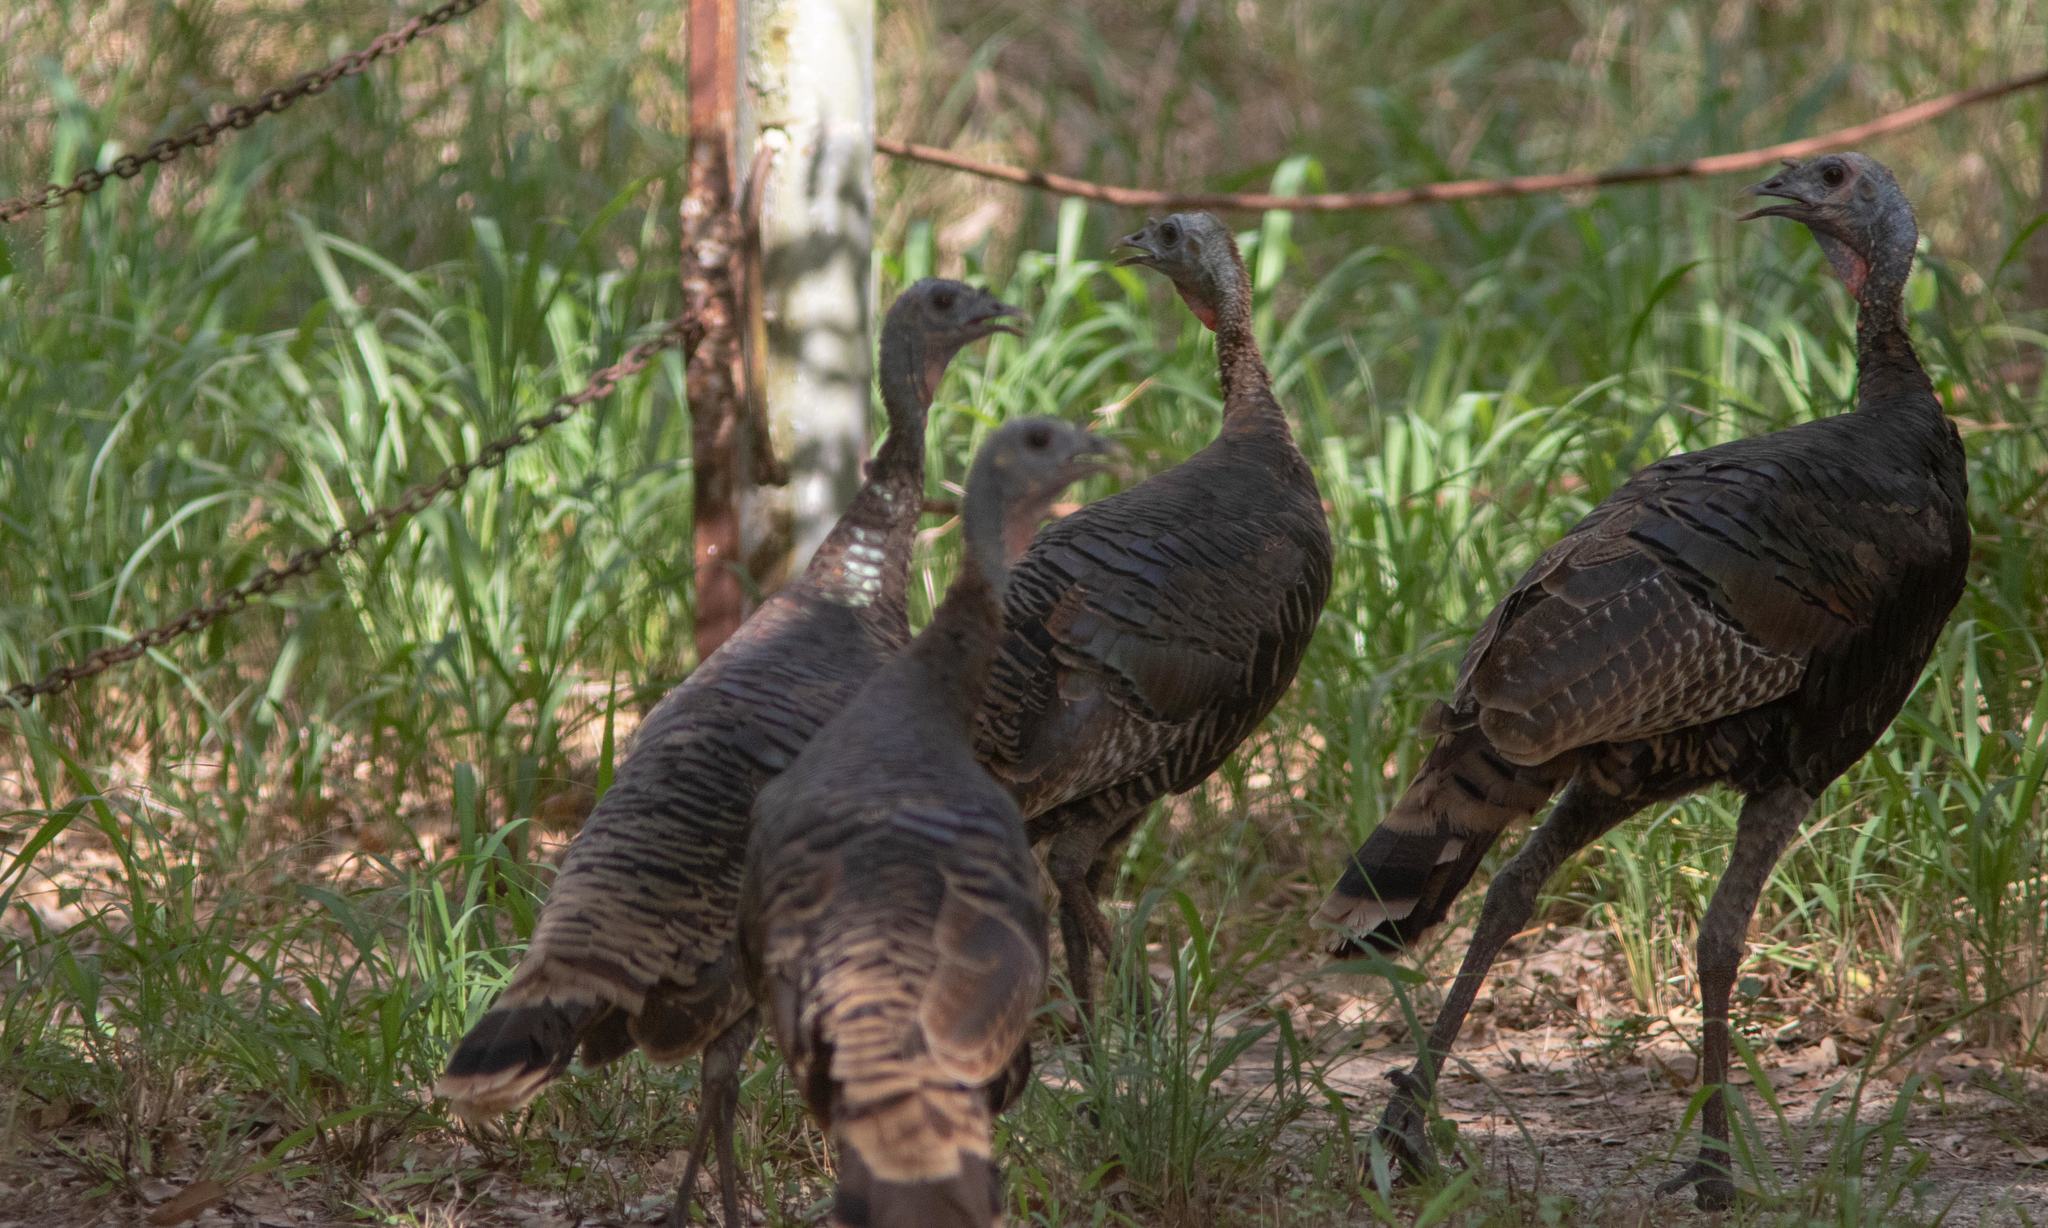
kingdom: Animalia
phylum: Chordata
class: Aves
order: Galliformes
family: Phasianidae
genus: Meleagris
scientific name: Meleagris gallopavo
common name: Wild turkey
